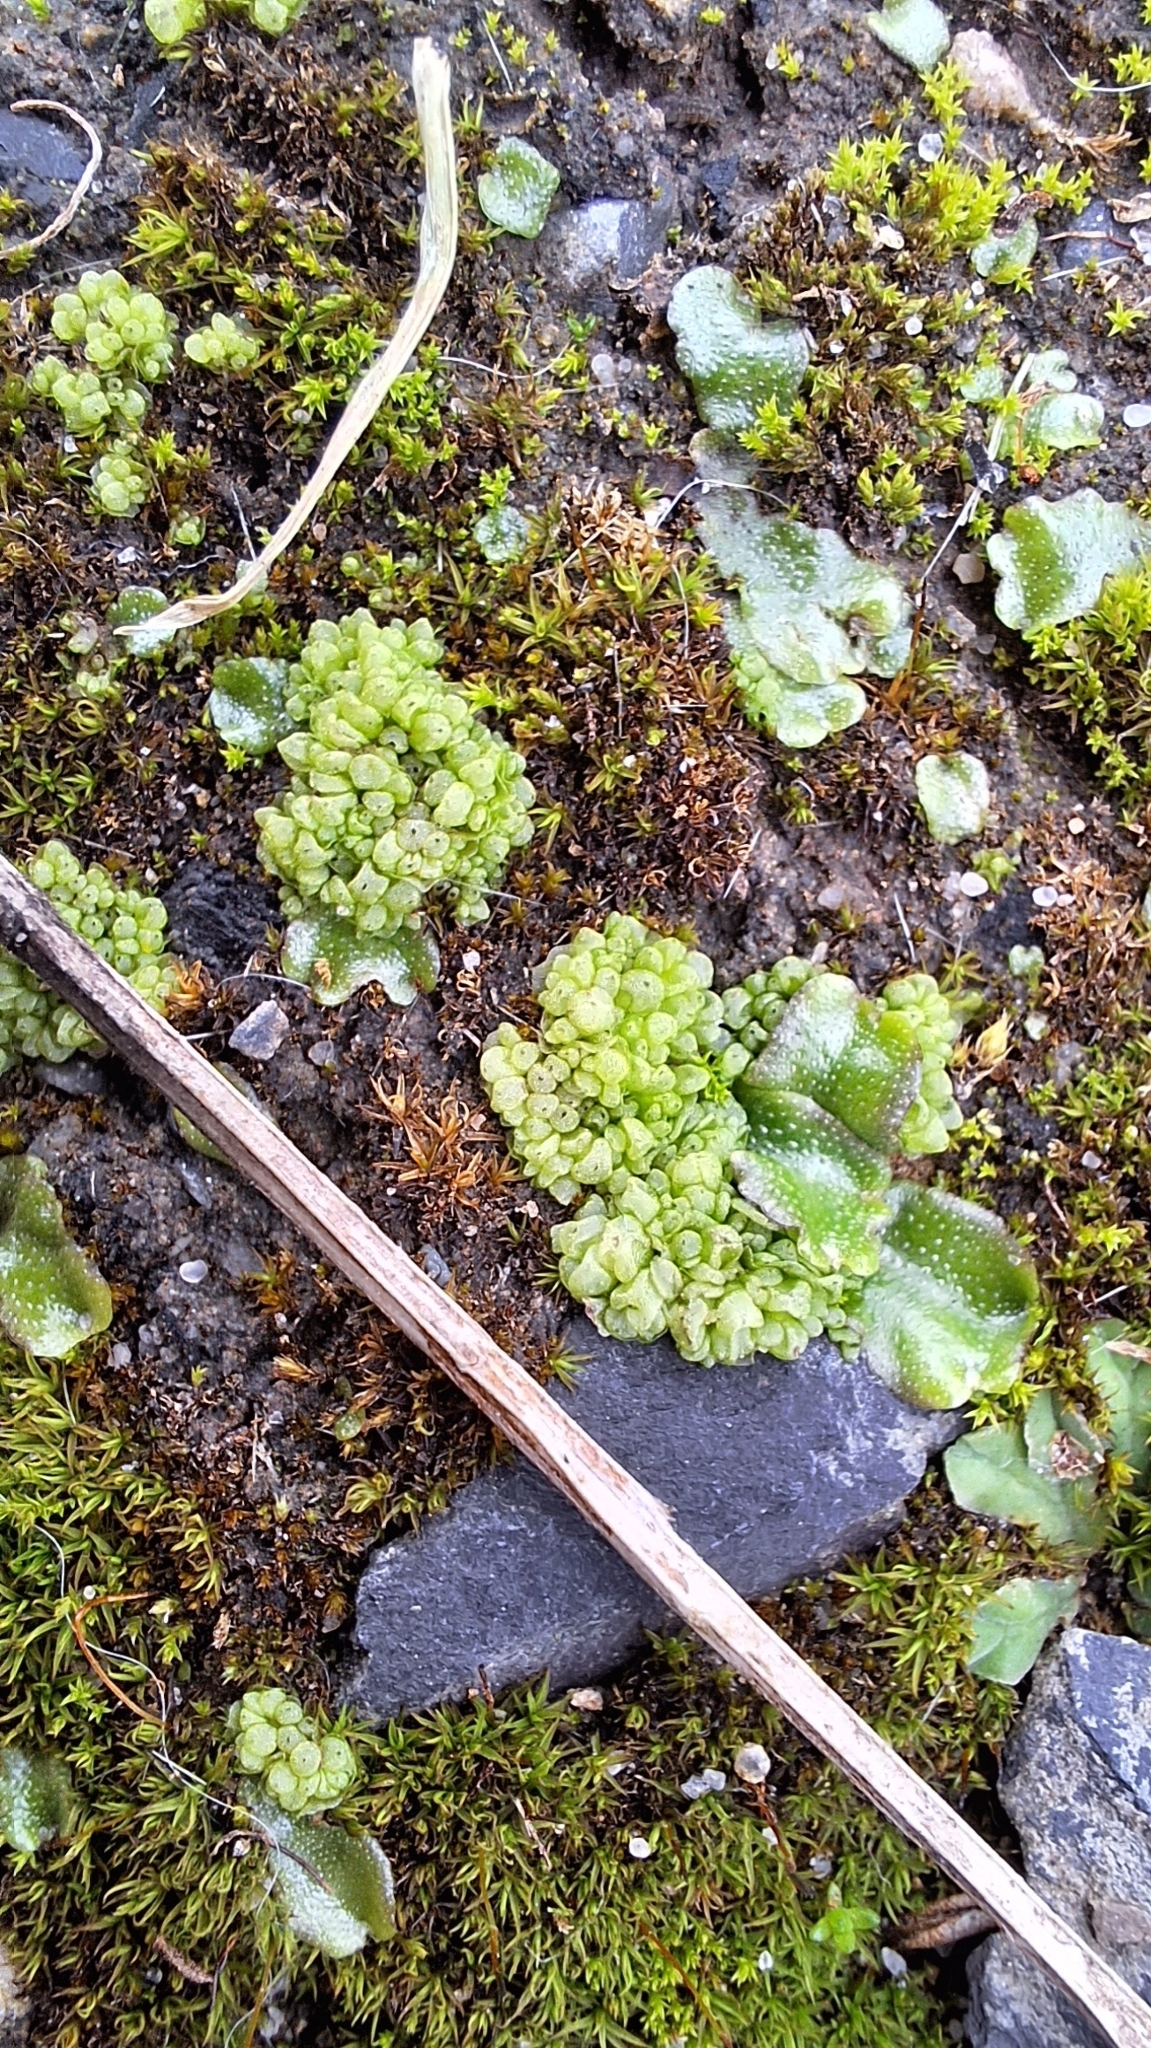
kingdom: Plantae
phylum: Marchantiophyta
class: Marchantiopsida
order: Sphaerocarpales
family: Sphaerocarpaceae
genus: Sphaerocarpos
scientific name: Sphaerocarpos texanus
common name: Texas balloonwort
